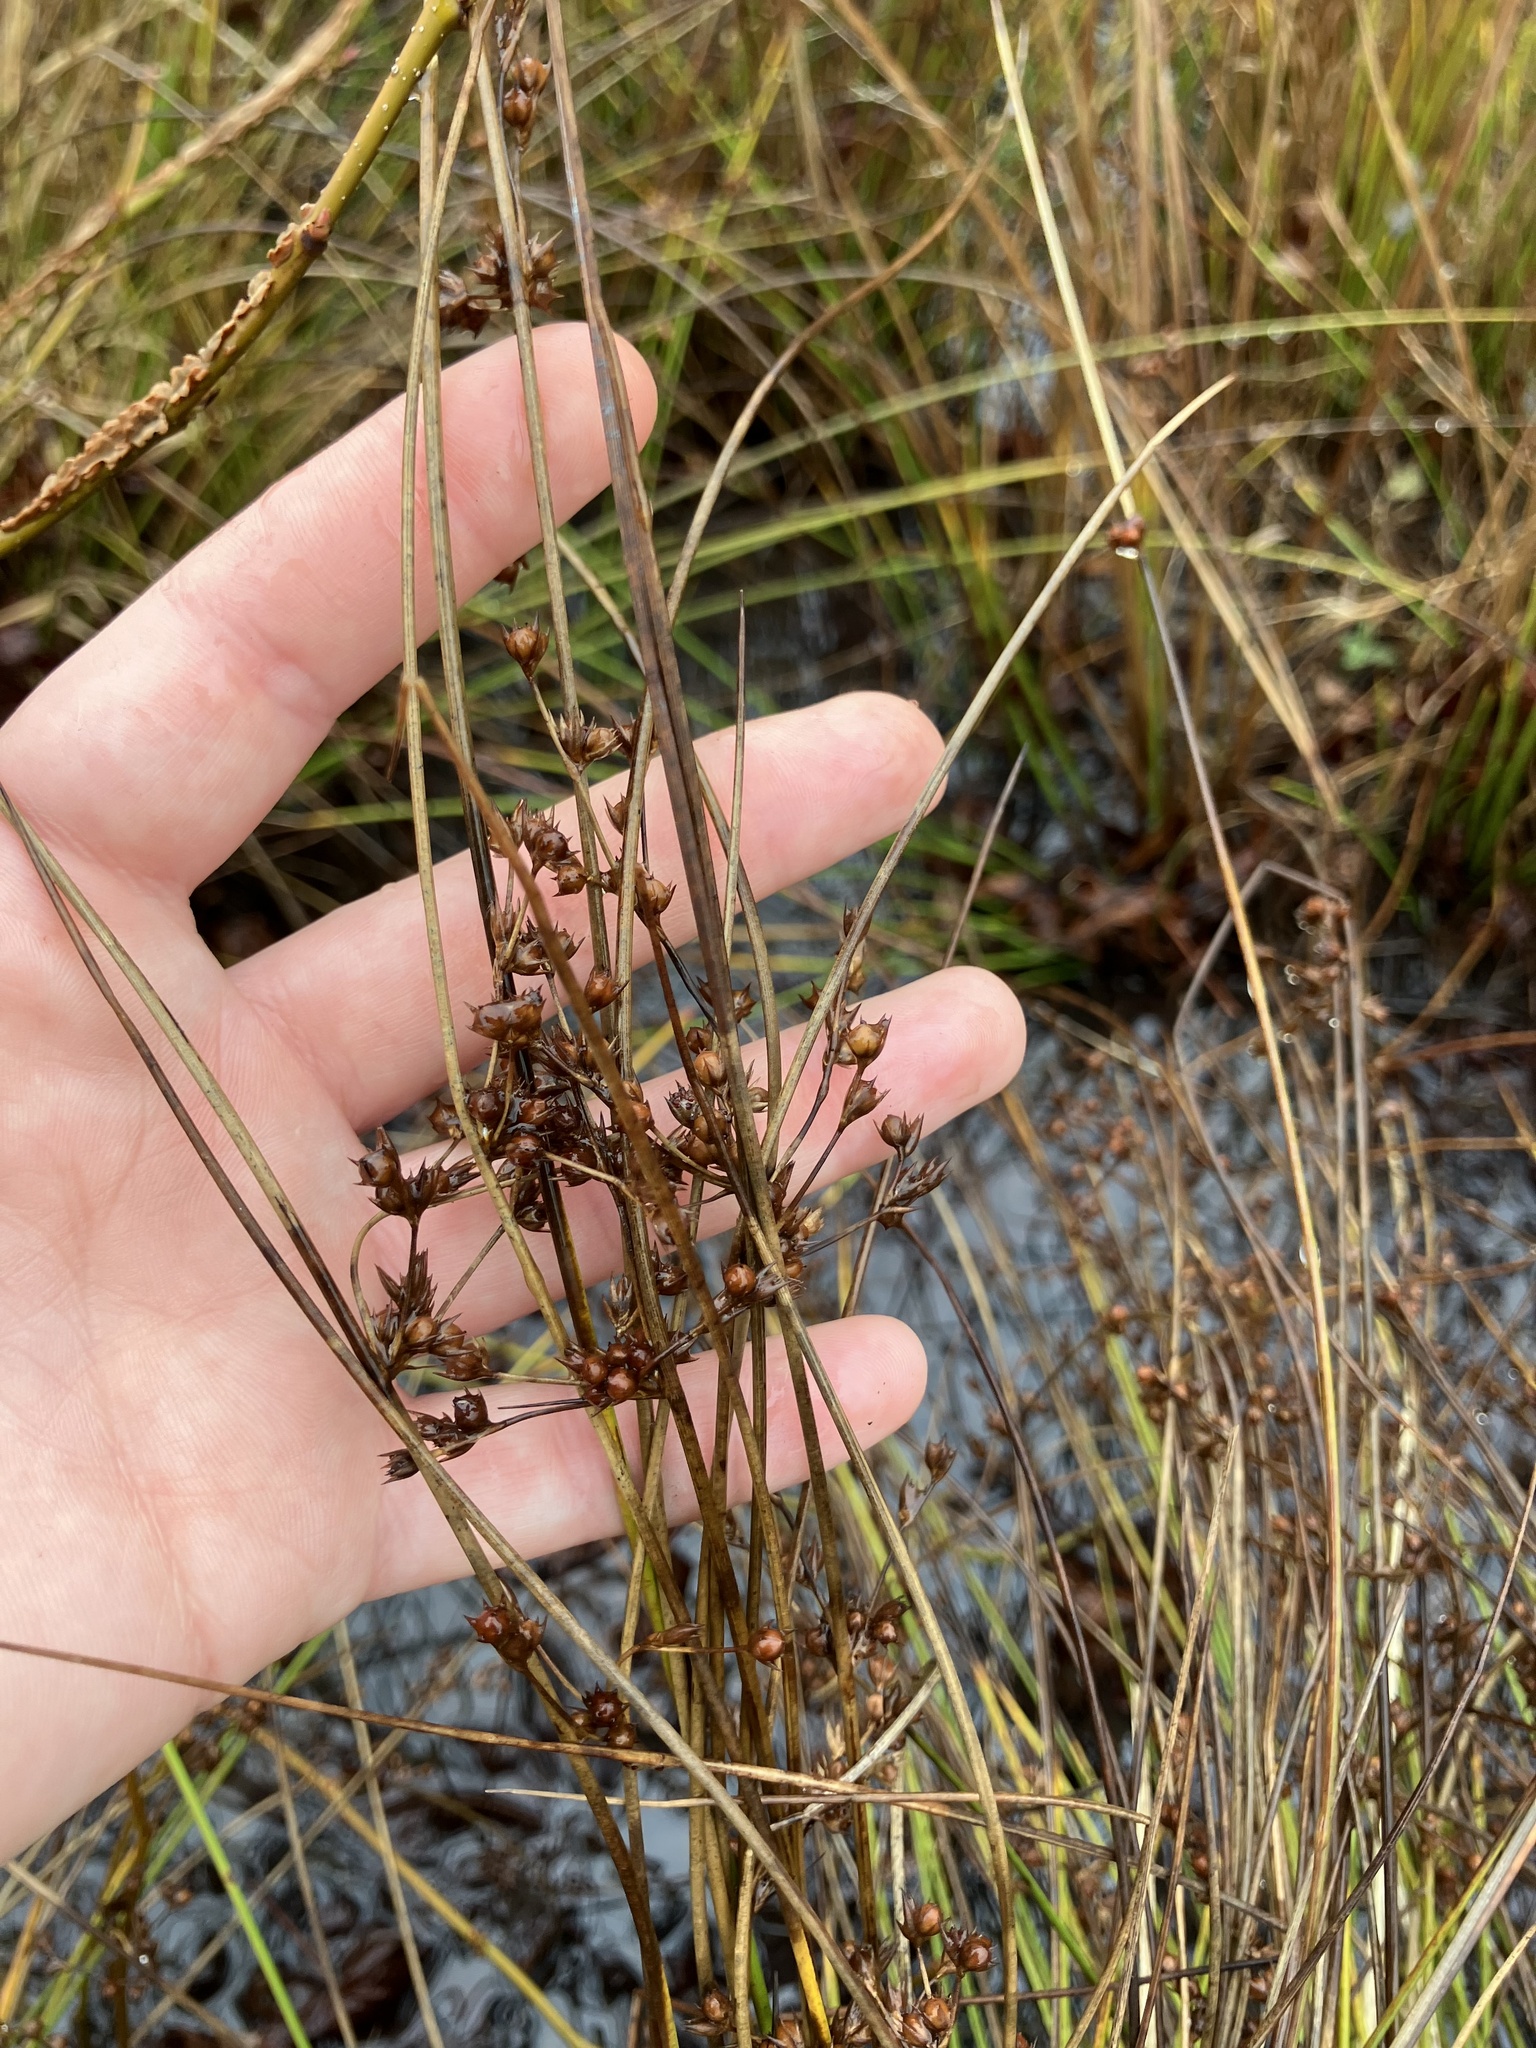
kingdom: Plantae
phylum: Tracheophyta
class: Liliopsida
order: Poales
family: Juncaceae
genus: Juncus
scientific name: Juncus coriaceus
